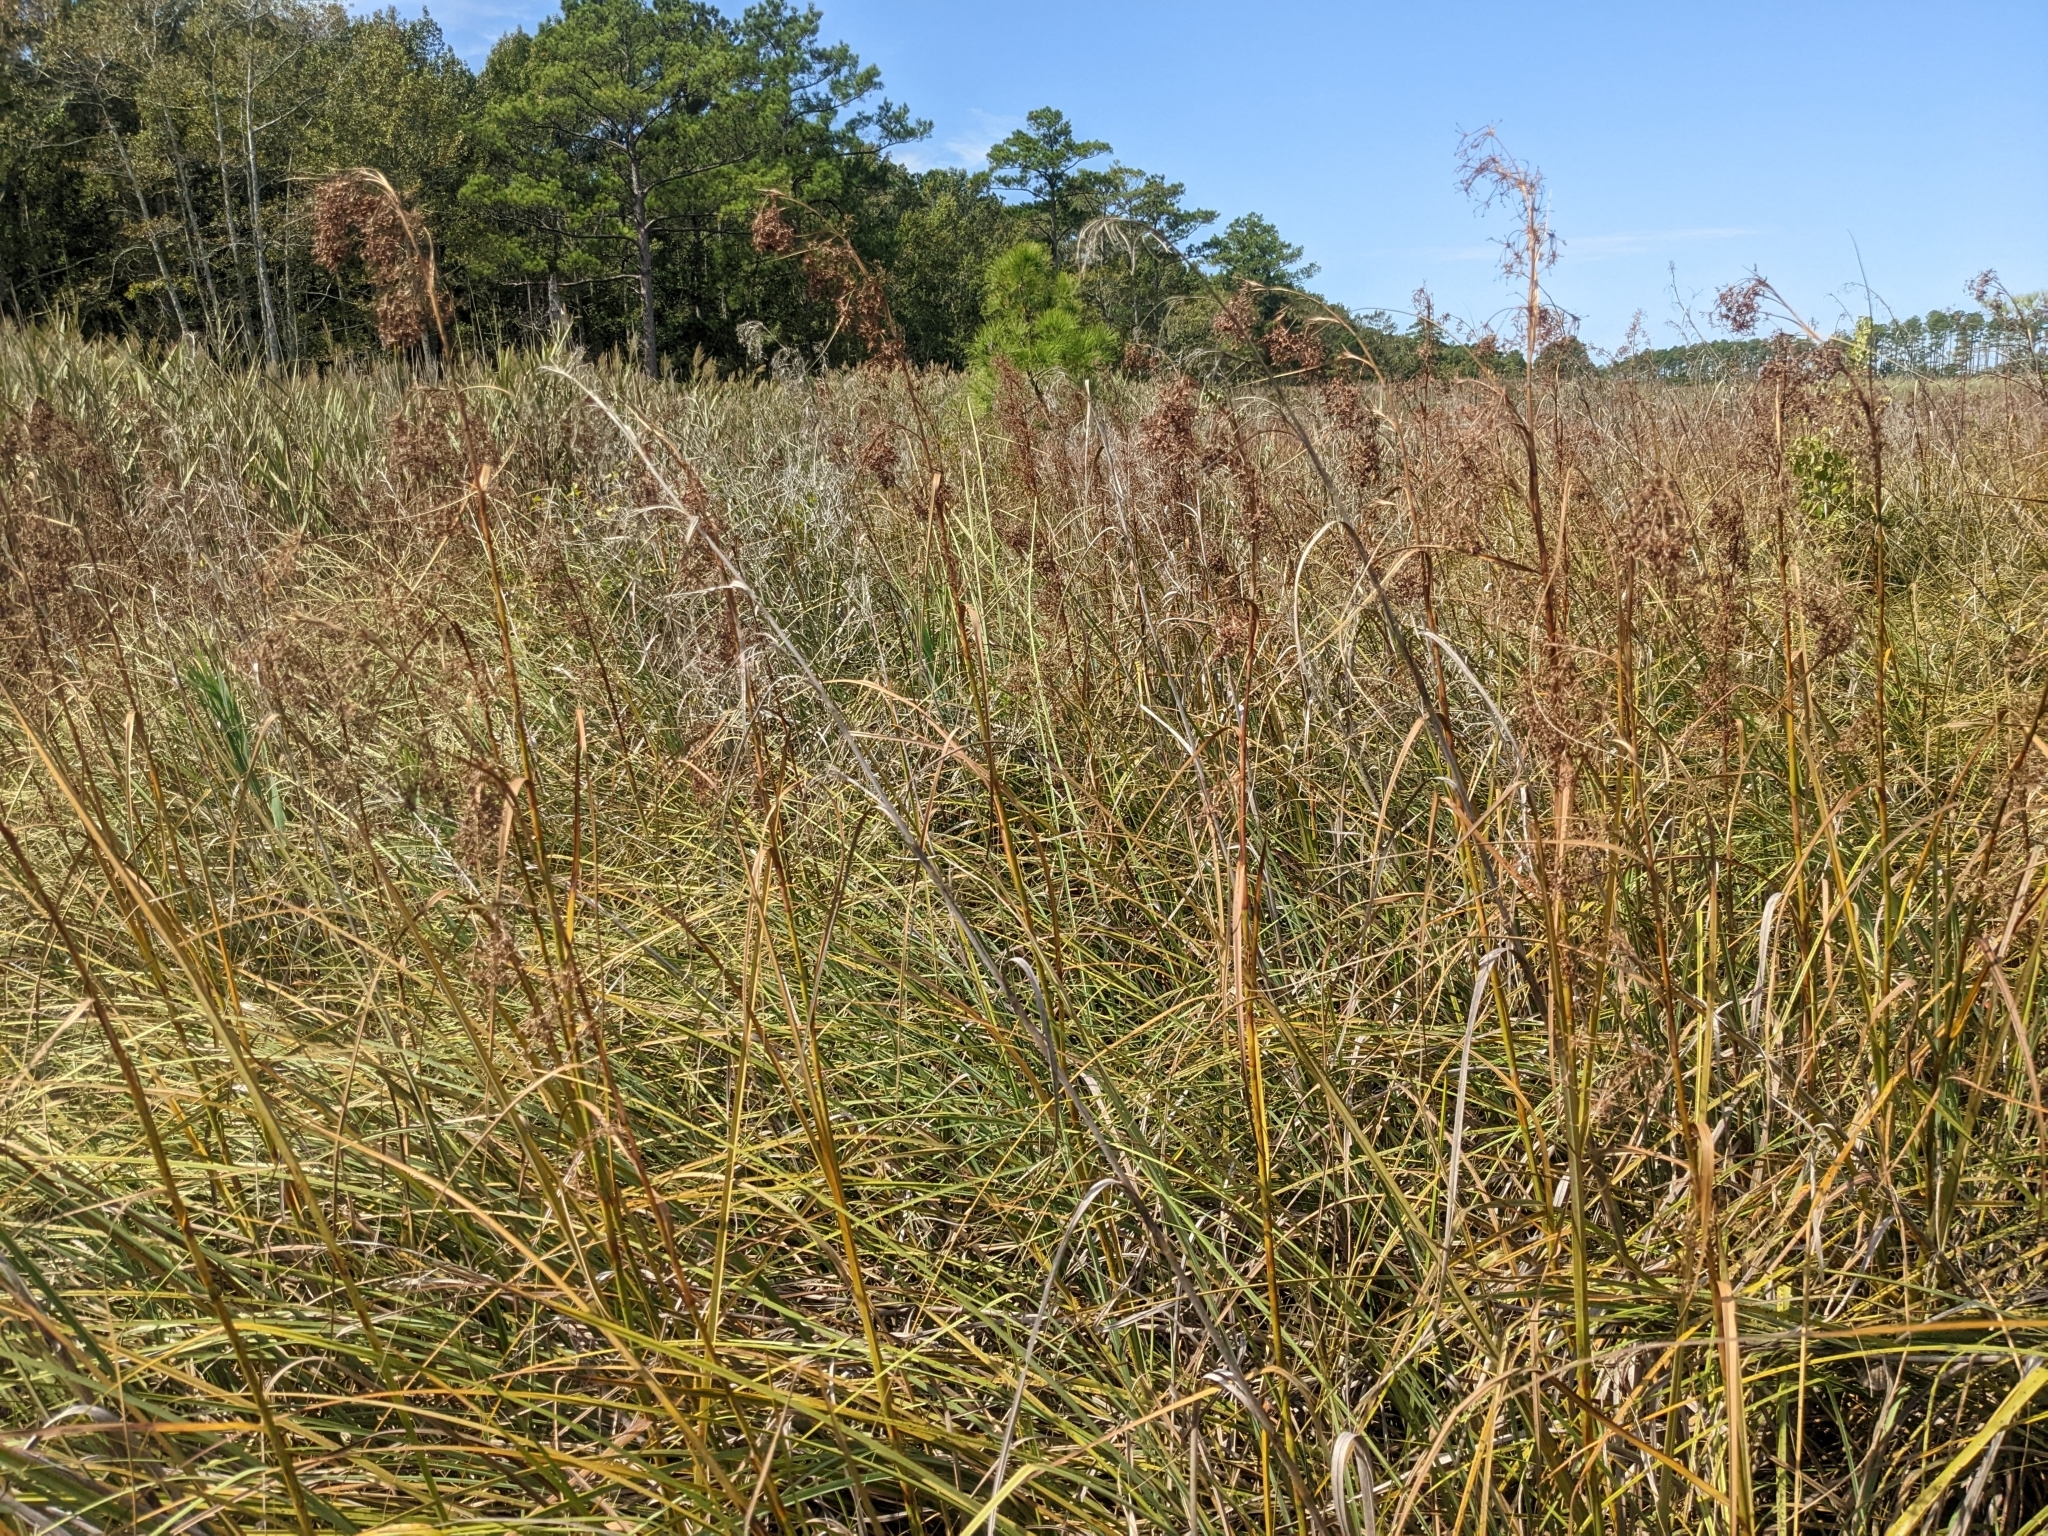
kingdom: Plantae
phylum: Tracheophyta
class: Liliopsida
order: Poales
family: Cyperaceae
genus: Cladium
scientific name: Cladium mariscus
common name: Great fen-sedge
